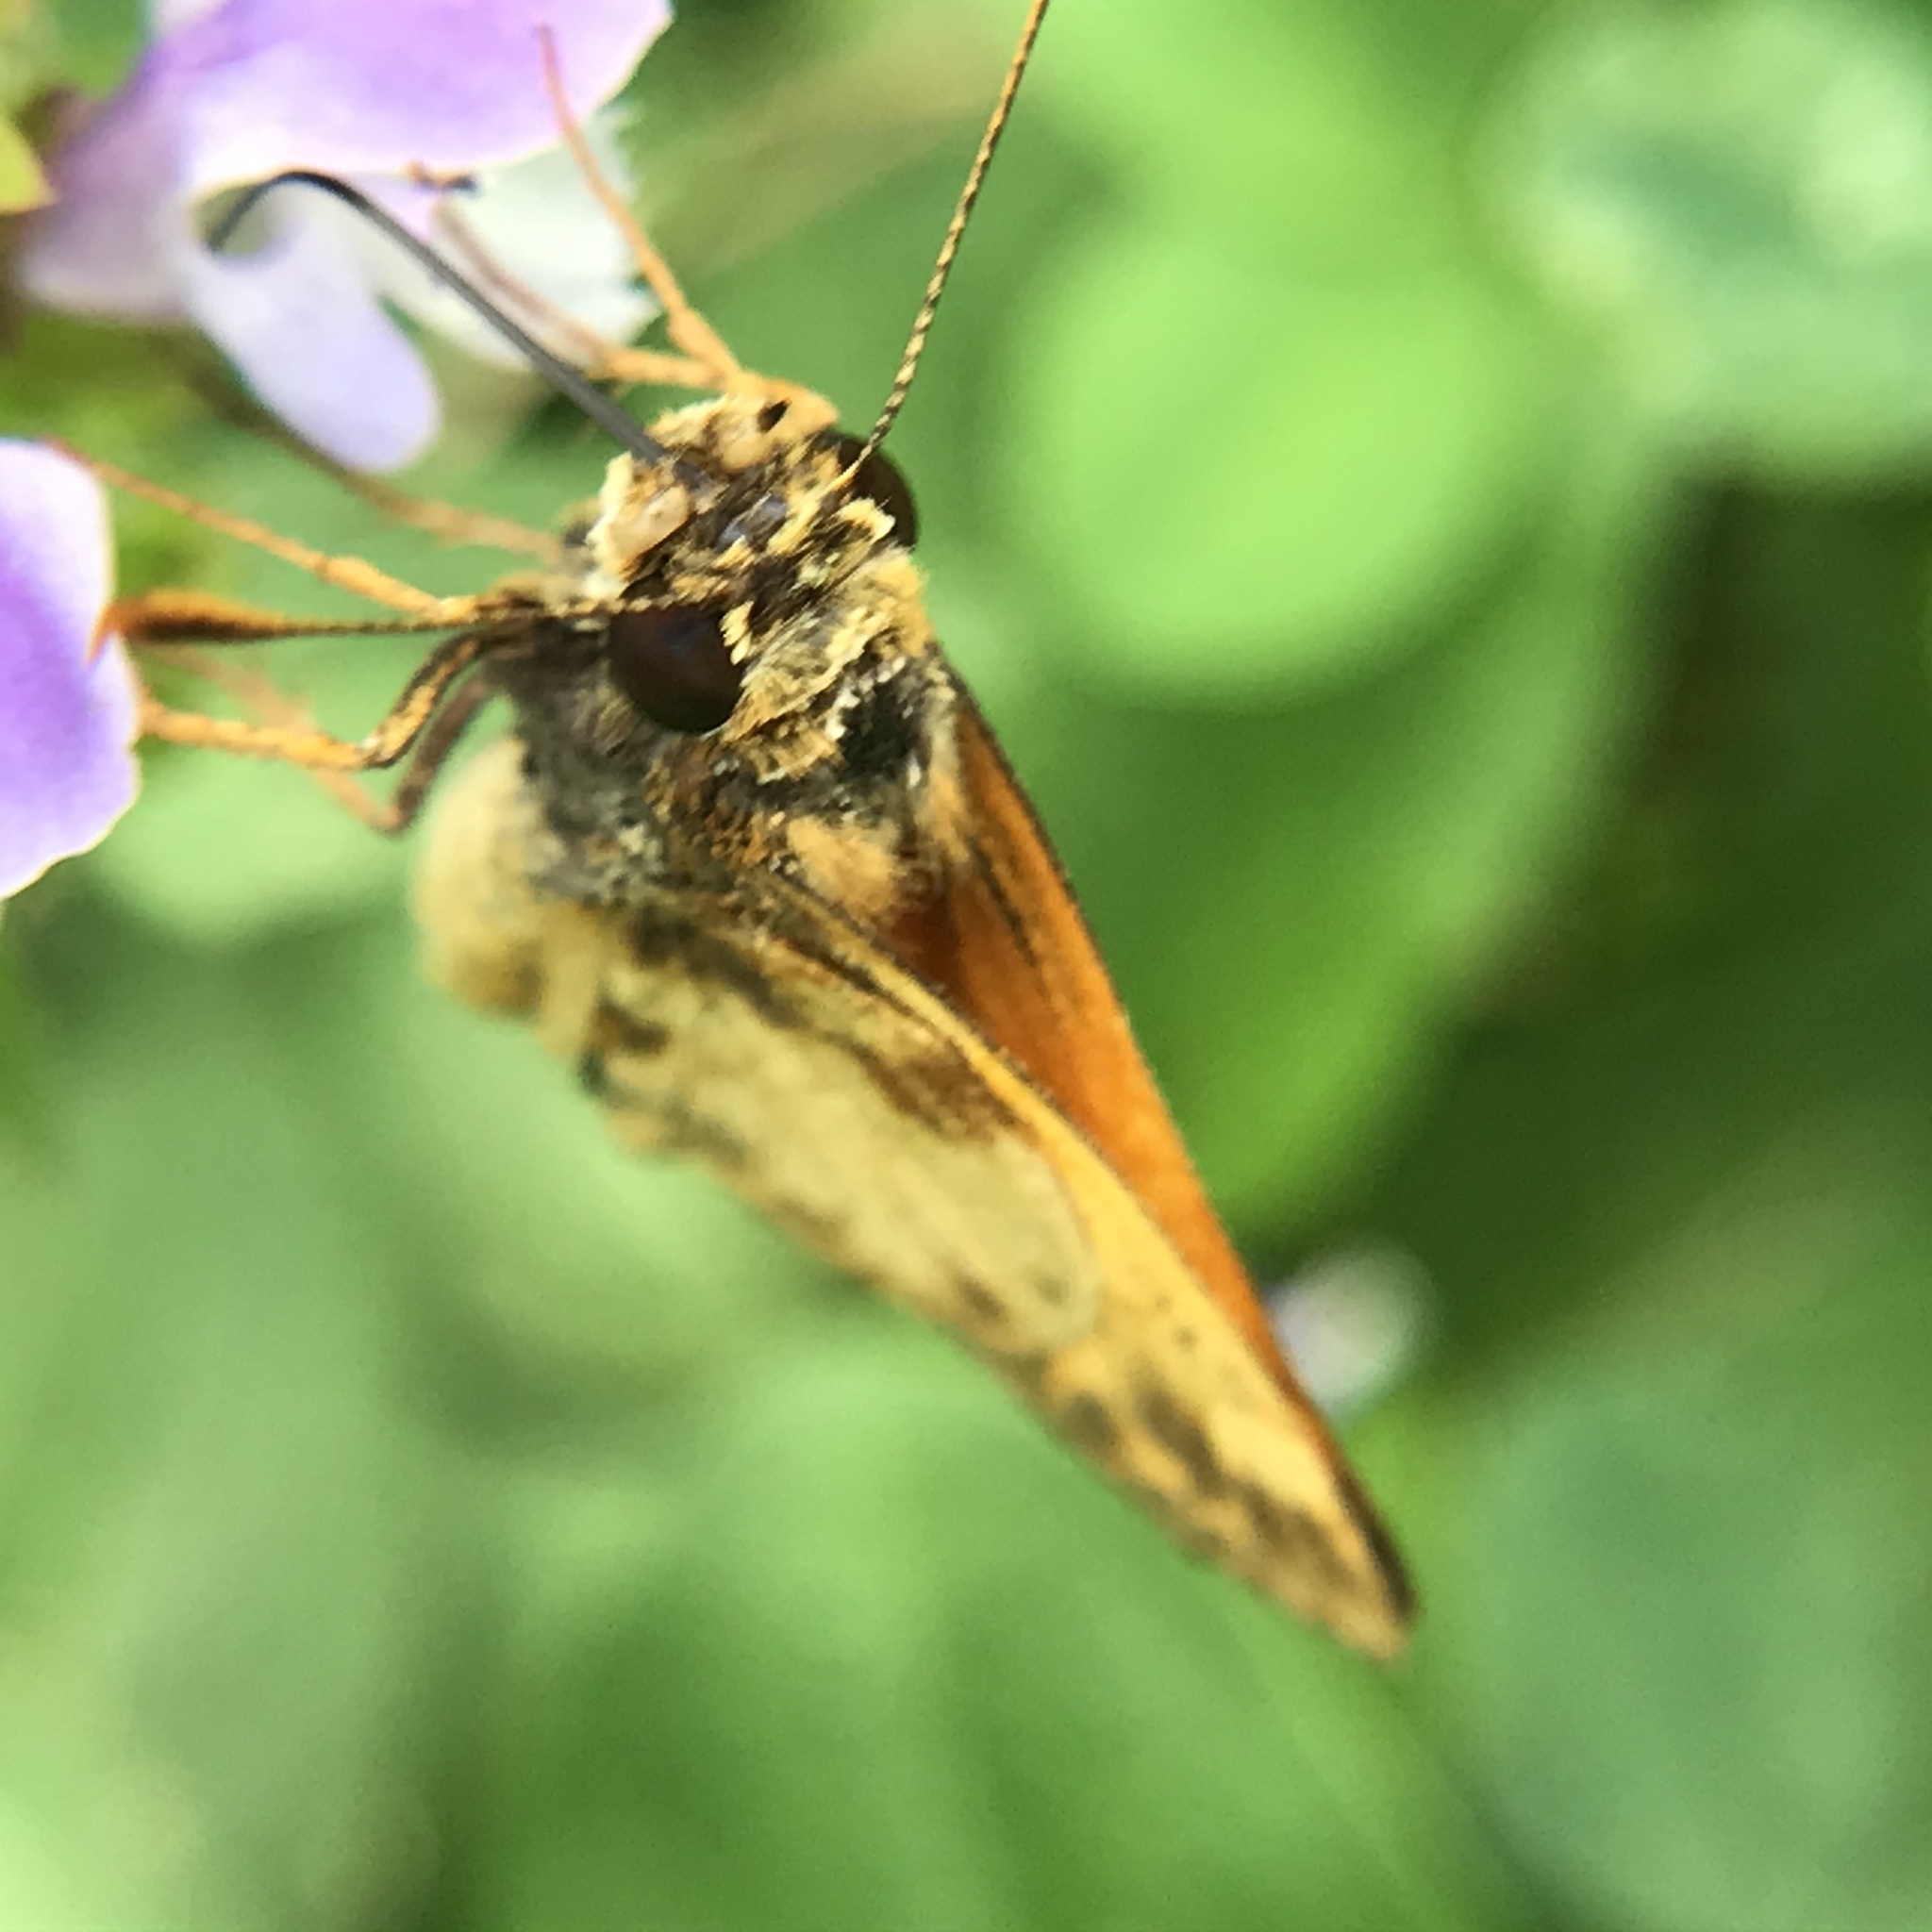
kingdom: Animalia
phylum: Arthropoda
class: Insecta
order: Lepidoptera
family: Hesperiidae
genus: Lon
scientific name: Lon zabulon
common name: Zabulon skipper
